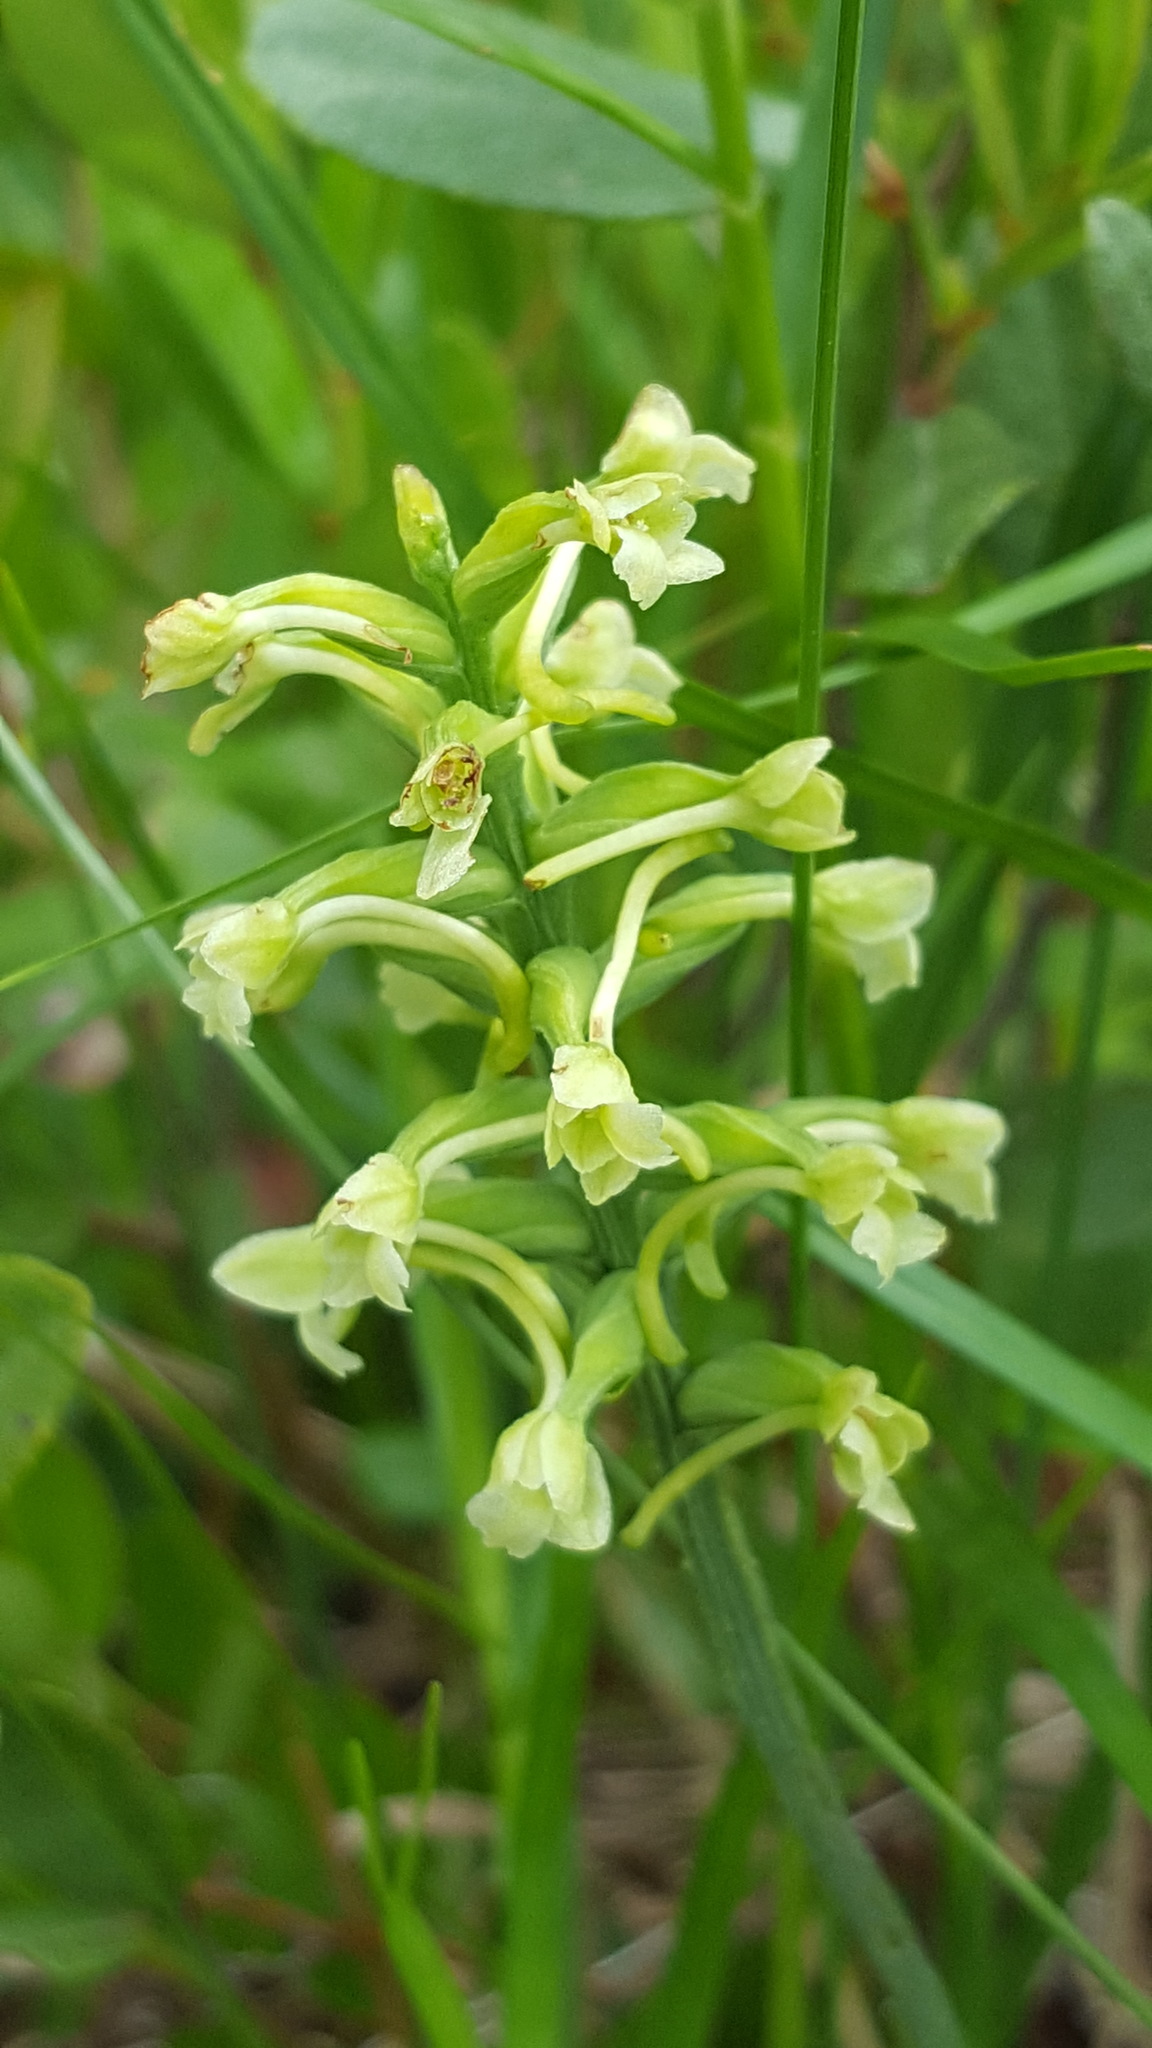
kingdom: Plantae
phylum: Tracheophyta
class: Liliopsida
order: Asparagales
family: Orchidaceae
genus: Platanthera
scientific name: Platanthera clavellata
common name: Club-spur orchid
